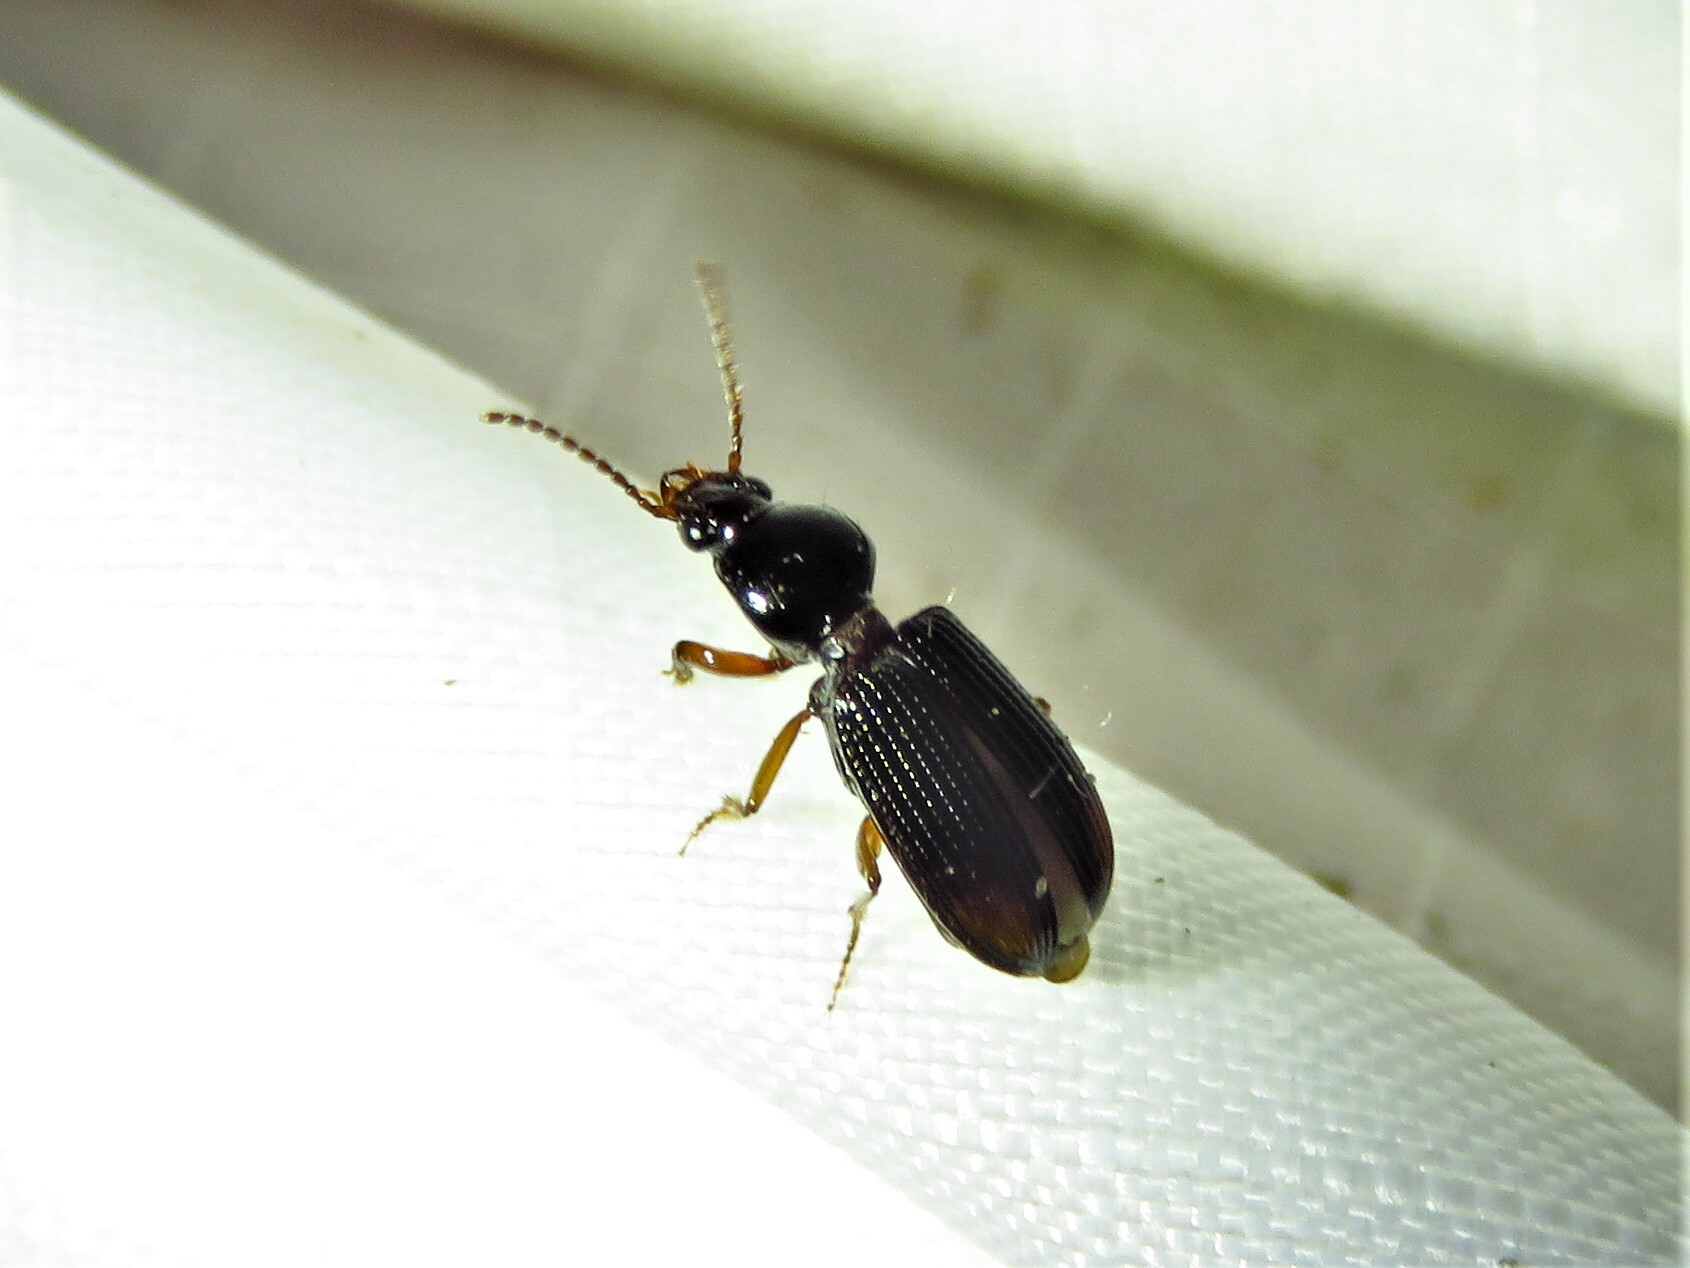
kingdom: Animalia
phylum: Arthropoda
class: Insecta
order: Coleoptera
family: Carabidae
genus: Aspidoglossa
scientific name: Aspidoglossa subangulata
